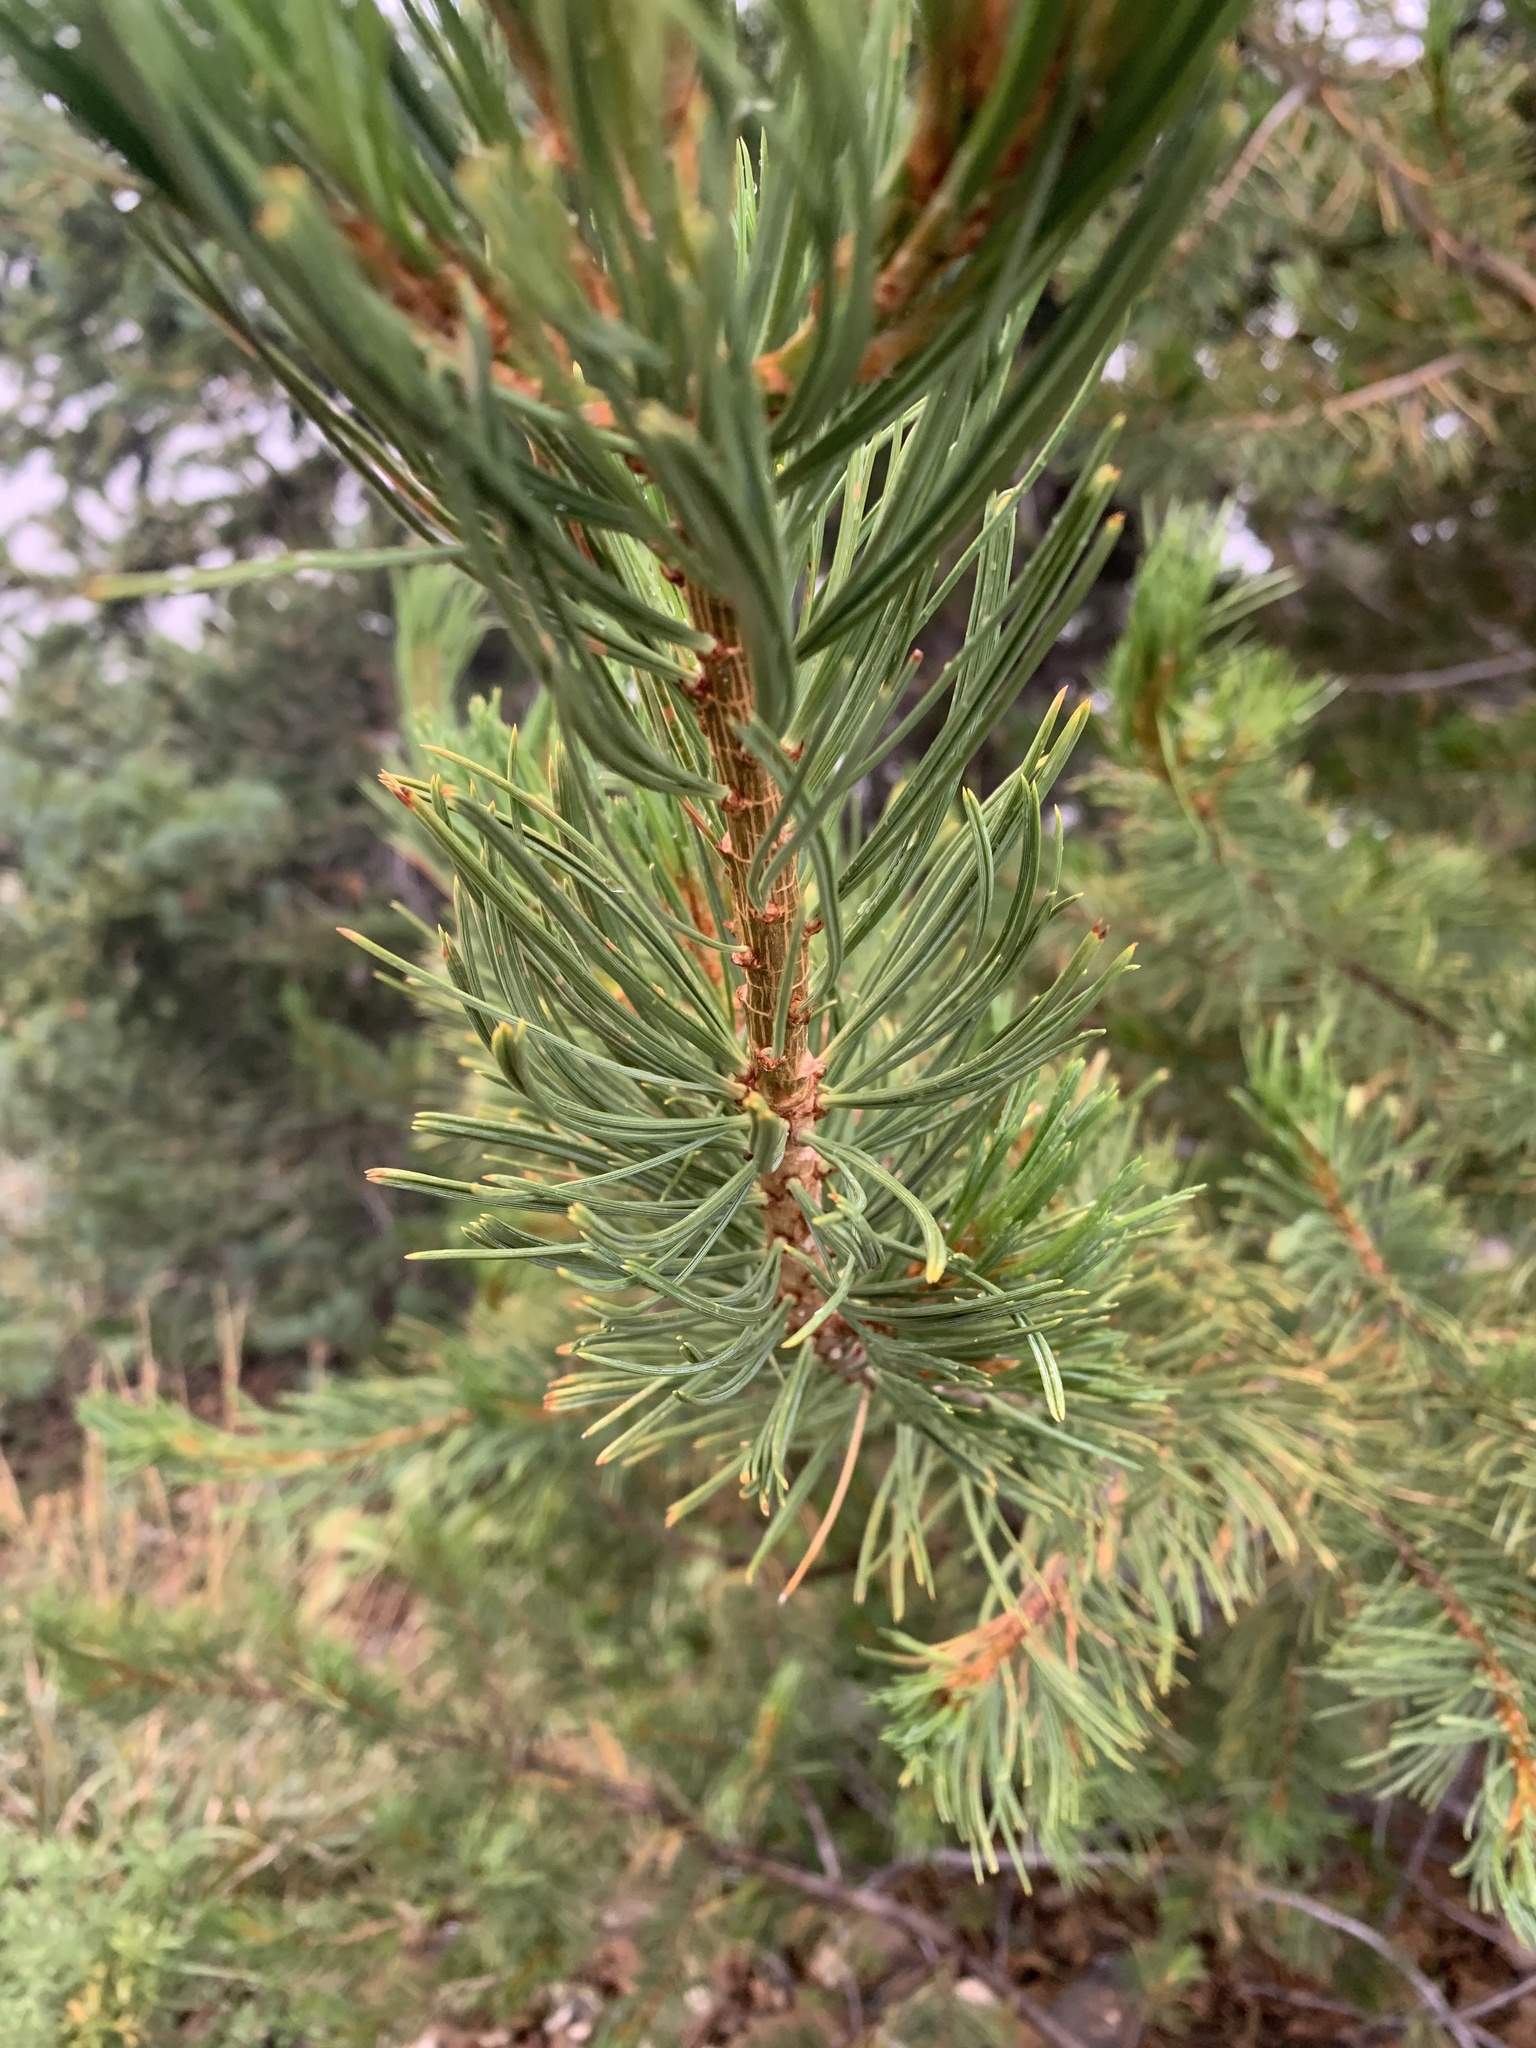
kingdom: Plantae
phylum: Tracheophyta
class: Pinopsida
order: Pinales
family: Pinaceae
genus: Pinus
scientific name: Pinus flexilis
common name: Limber pine
